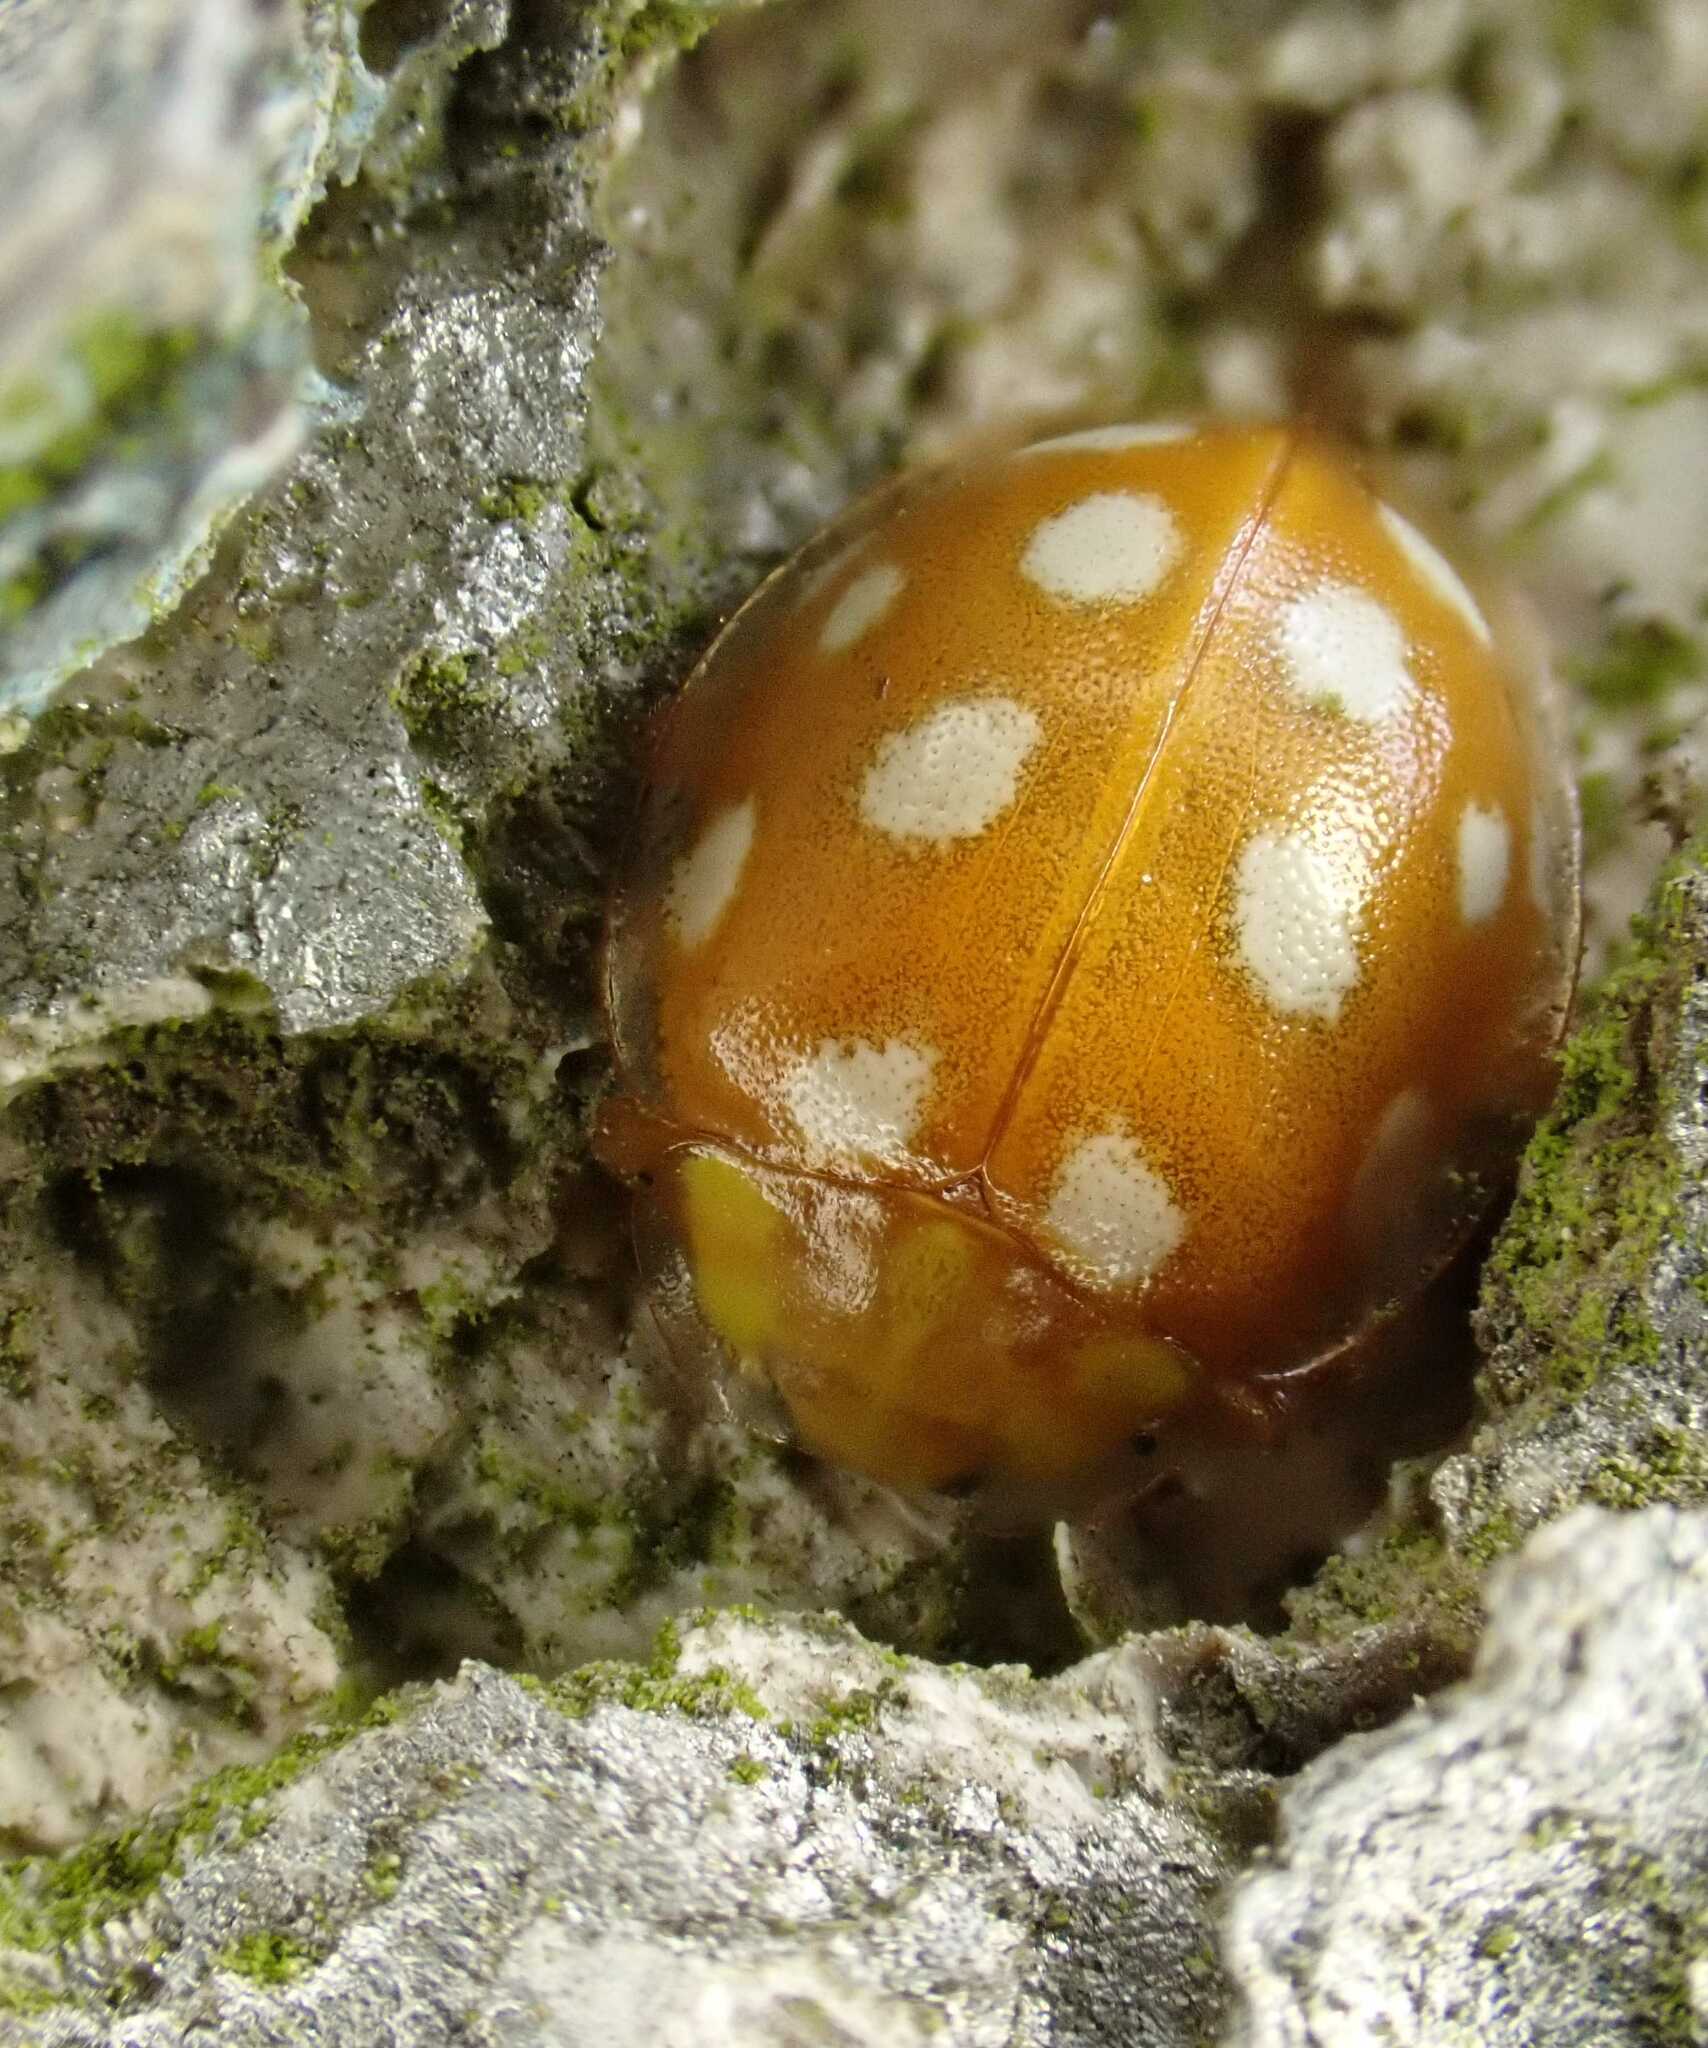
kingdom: Animalia
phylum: Arthropoda
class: Insecta
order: Coleoptera
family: Coccinellidae
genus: Halyzia
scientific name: Halyzia sedecimguttata
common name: Orange ladybird
